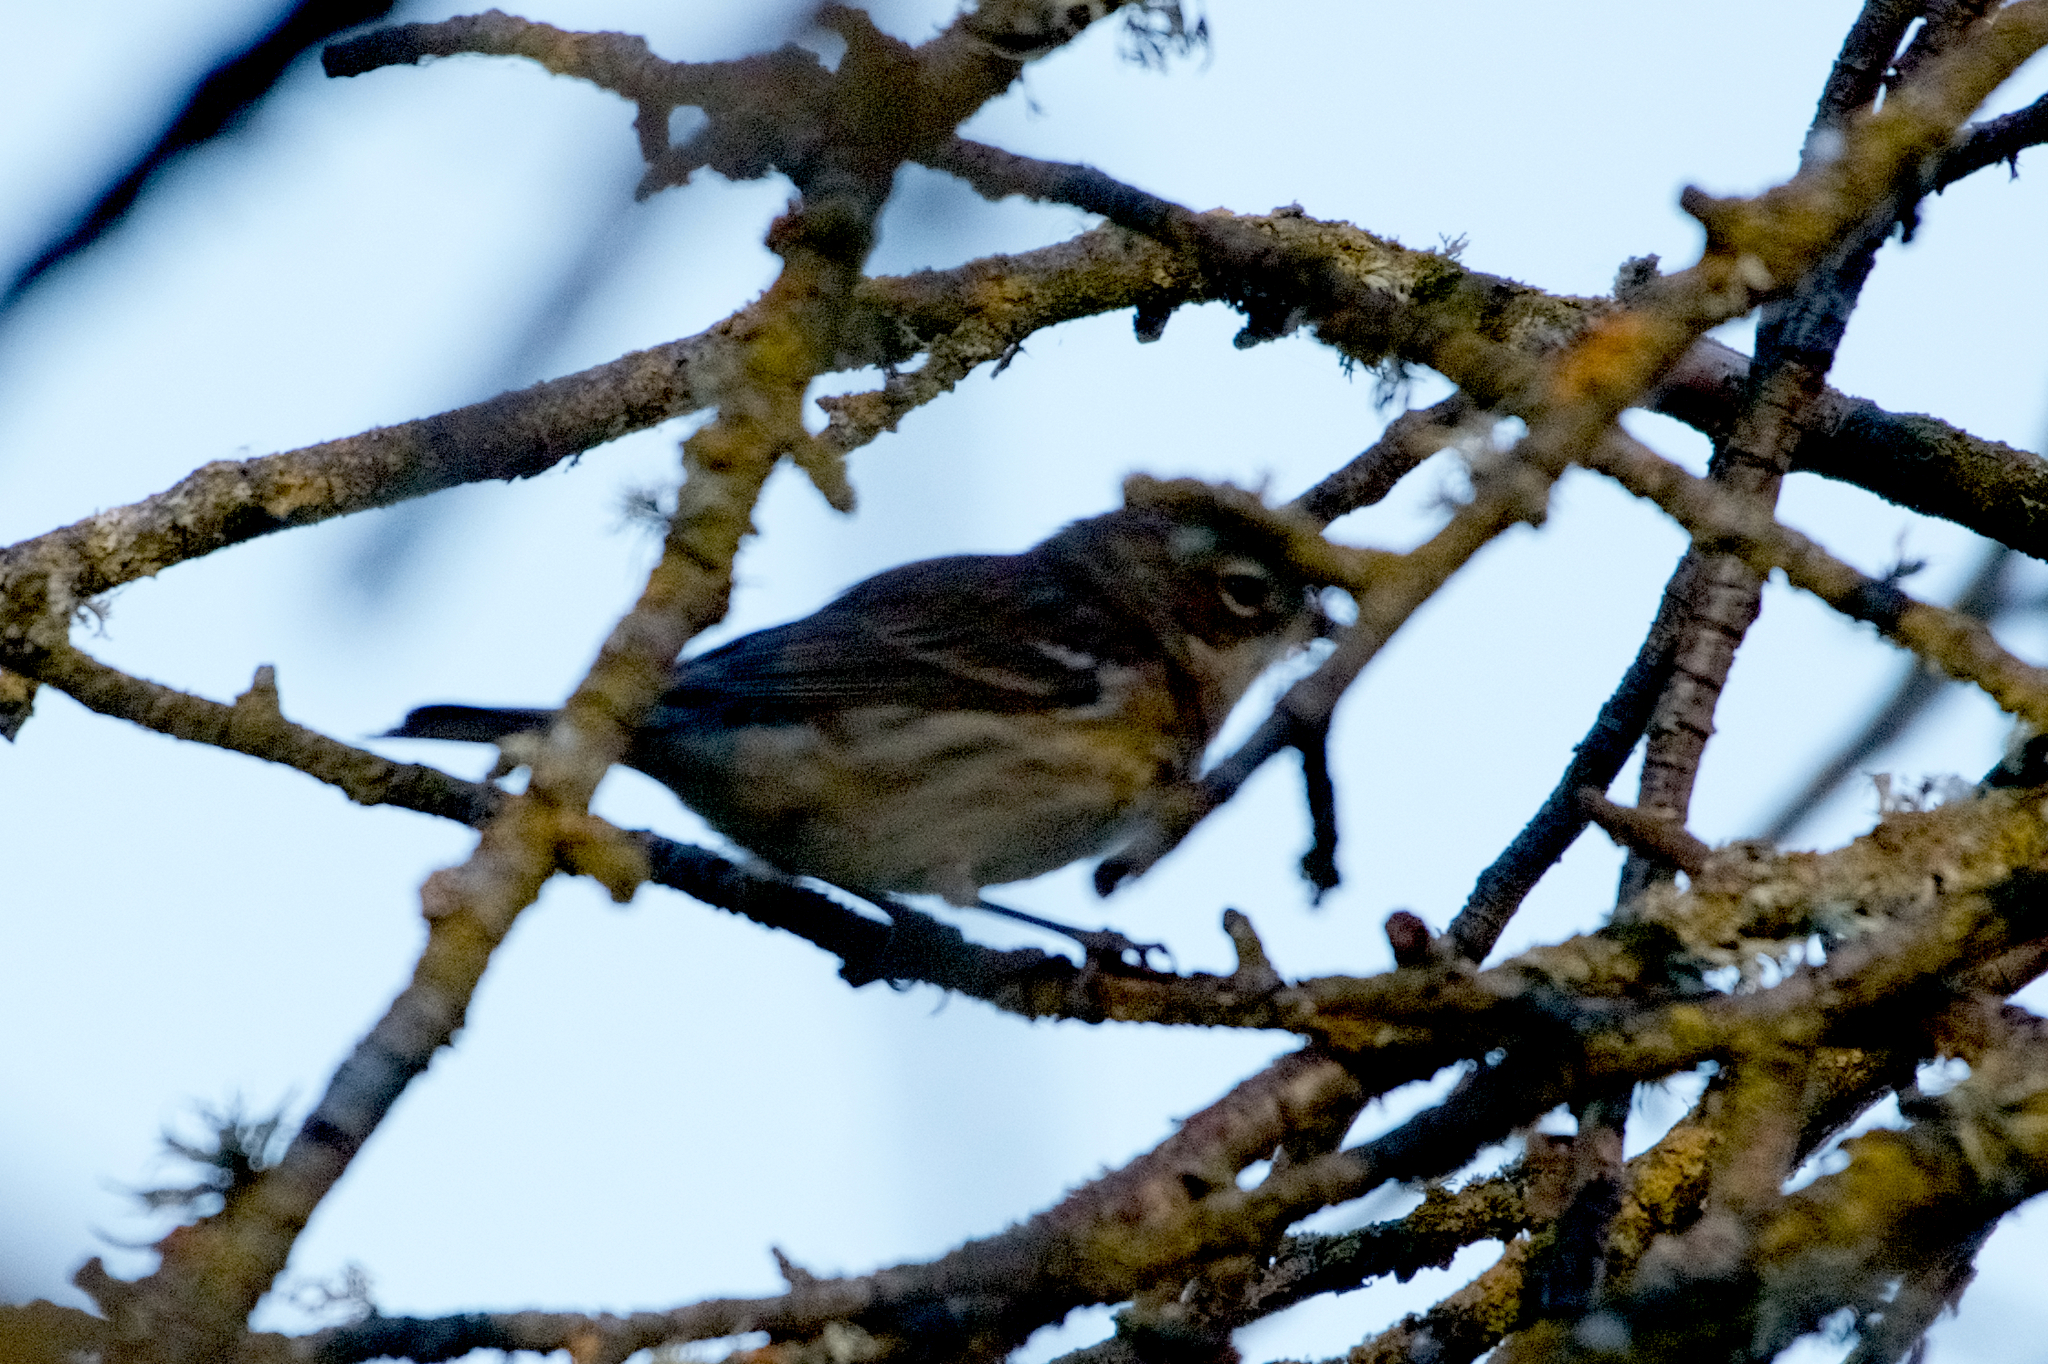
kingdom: Animalia
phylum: Chordata
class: Aves
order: Passeriformes
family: Parulidae
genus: Setophaga
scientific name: Setophaga coronata
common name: Myrtle warbler
